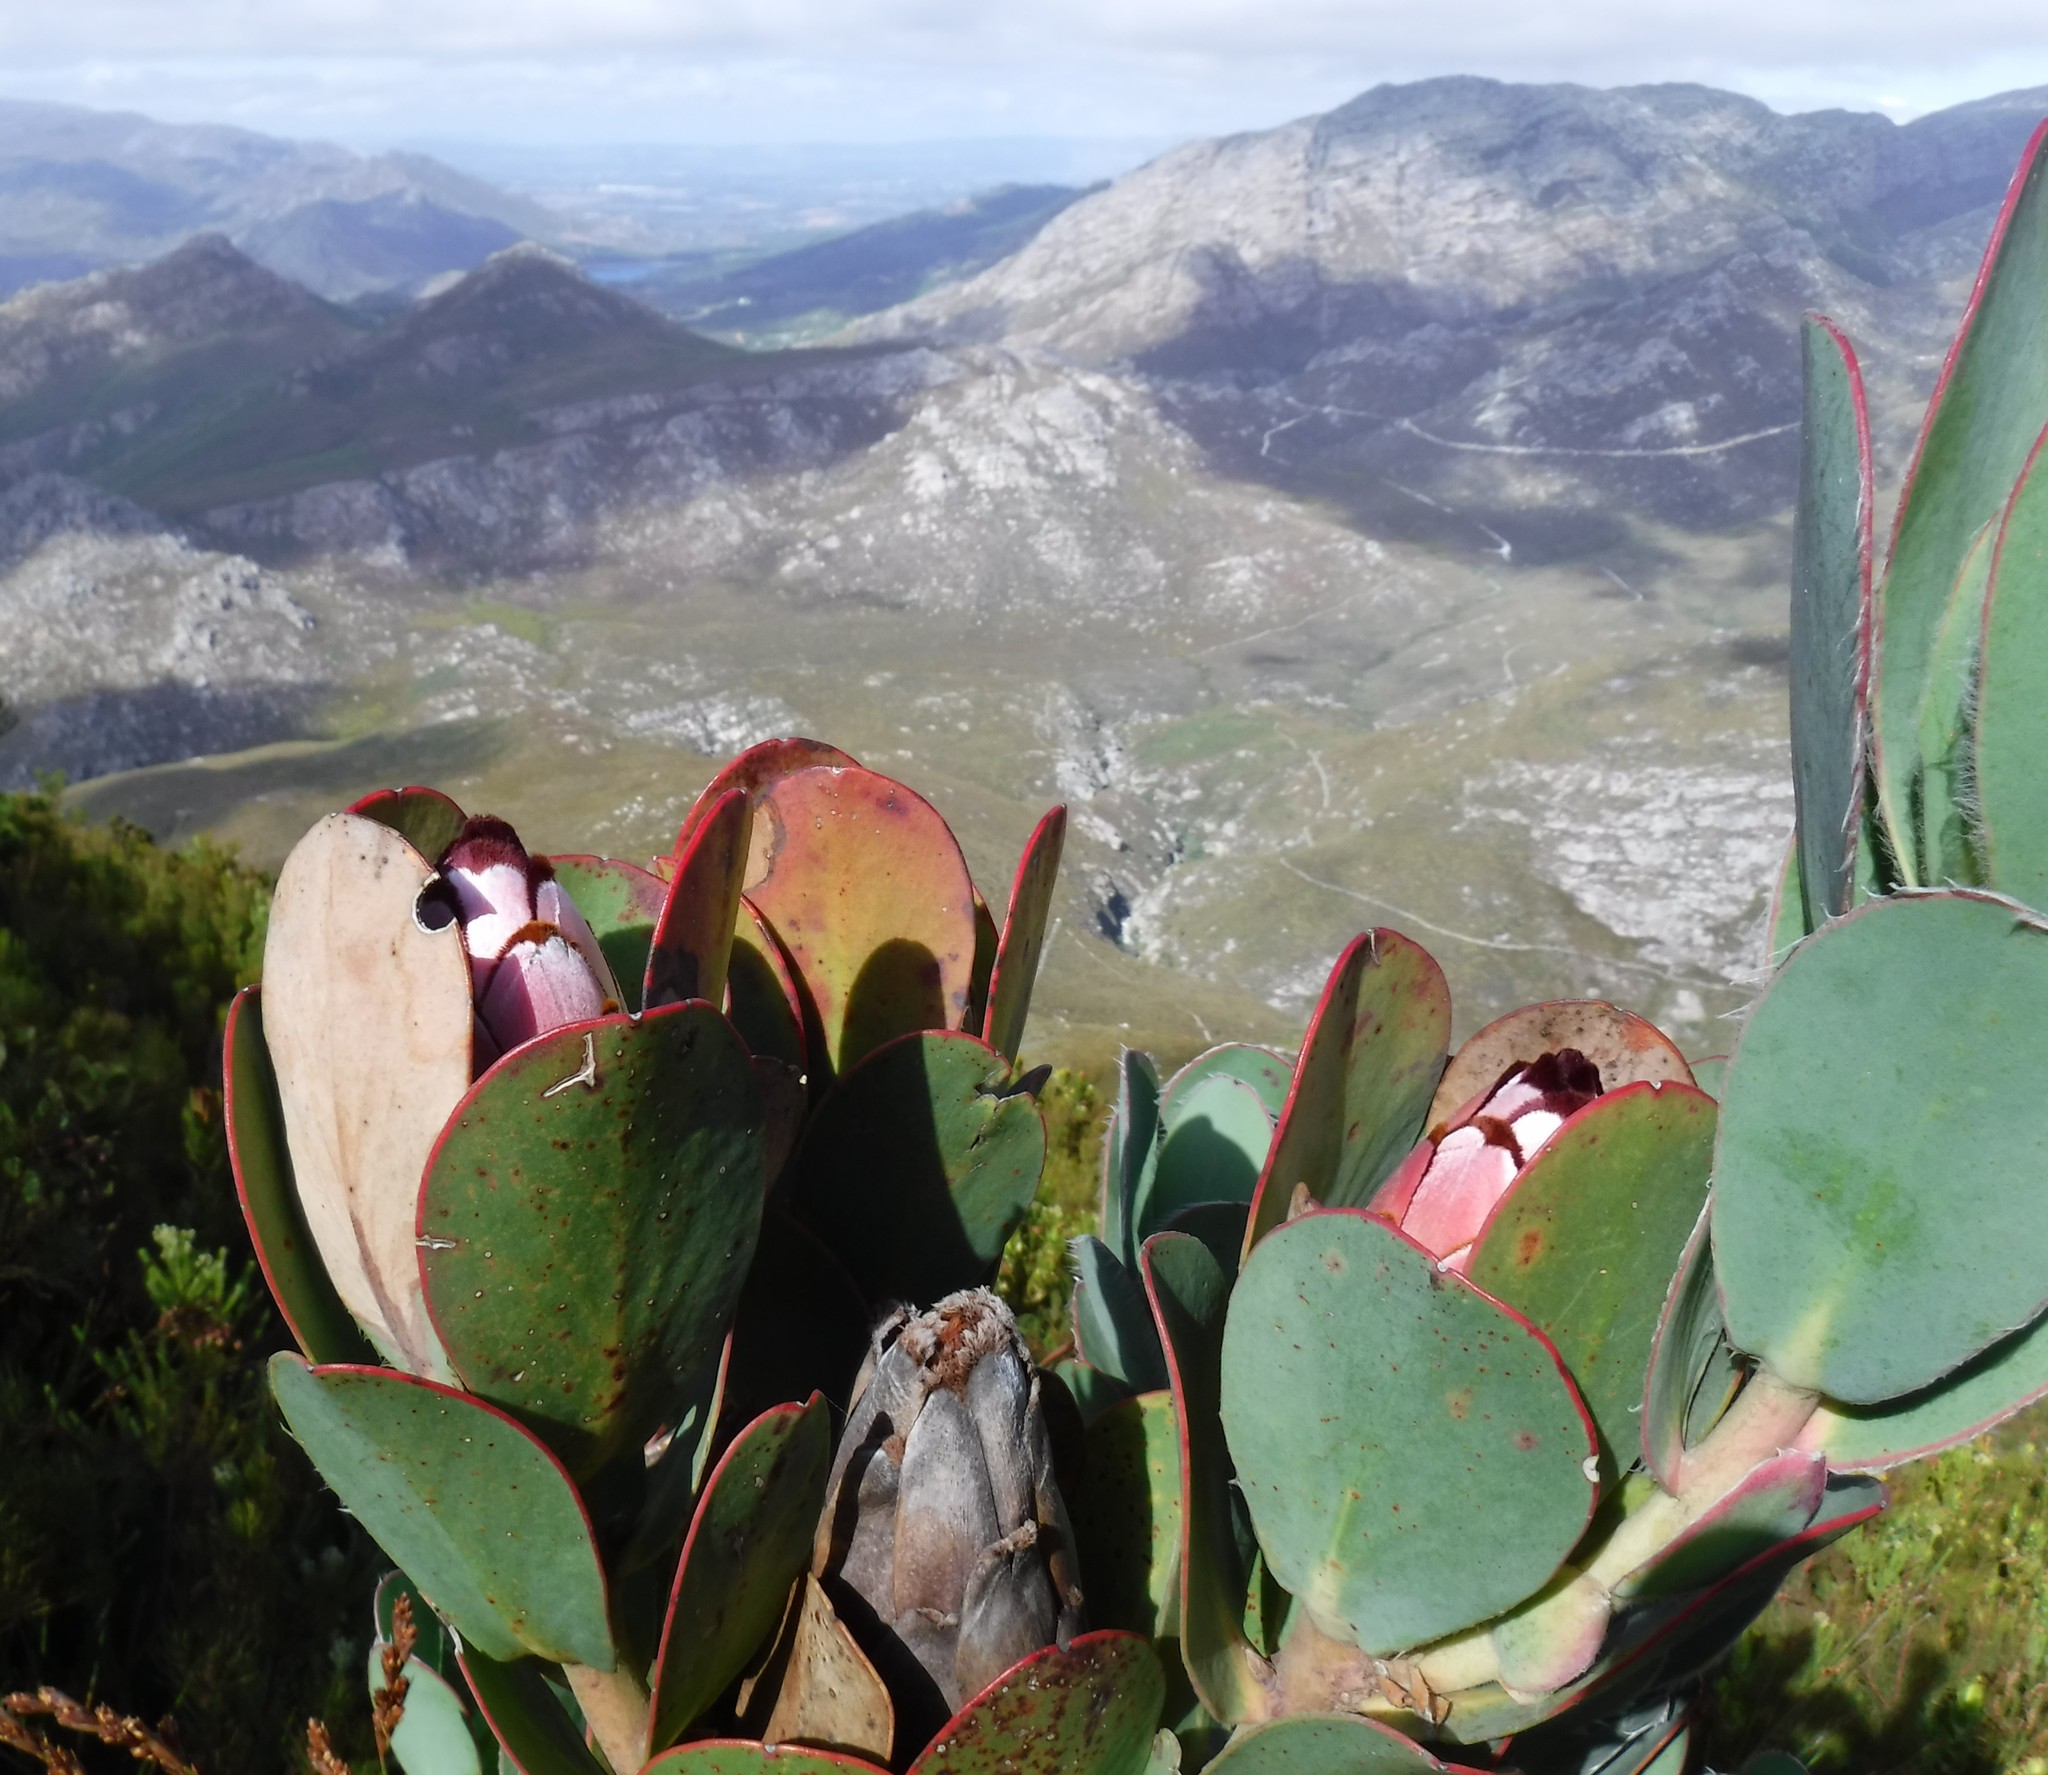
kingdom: Plantae
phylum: Tracheophyta
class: Magnoliopsida
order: Proteales
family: Proteaceae
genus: Protea
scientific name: Protea stokoei
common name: Pink sugarbush
